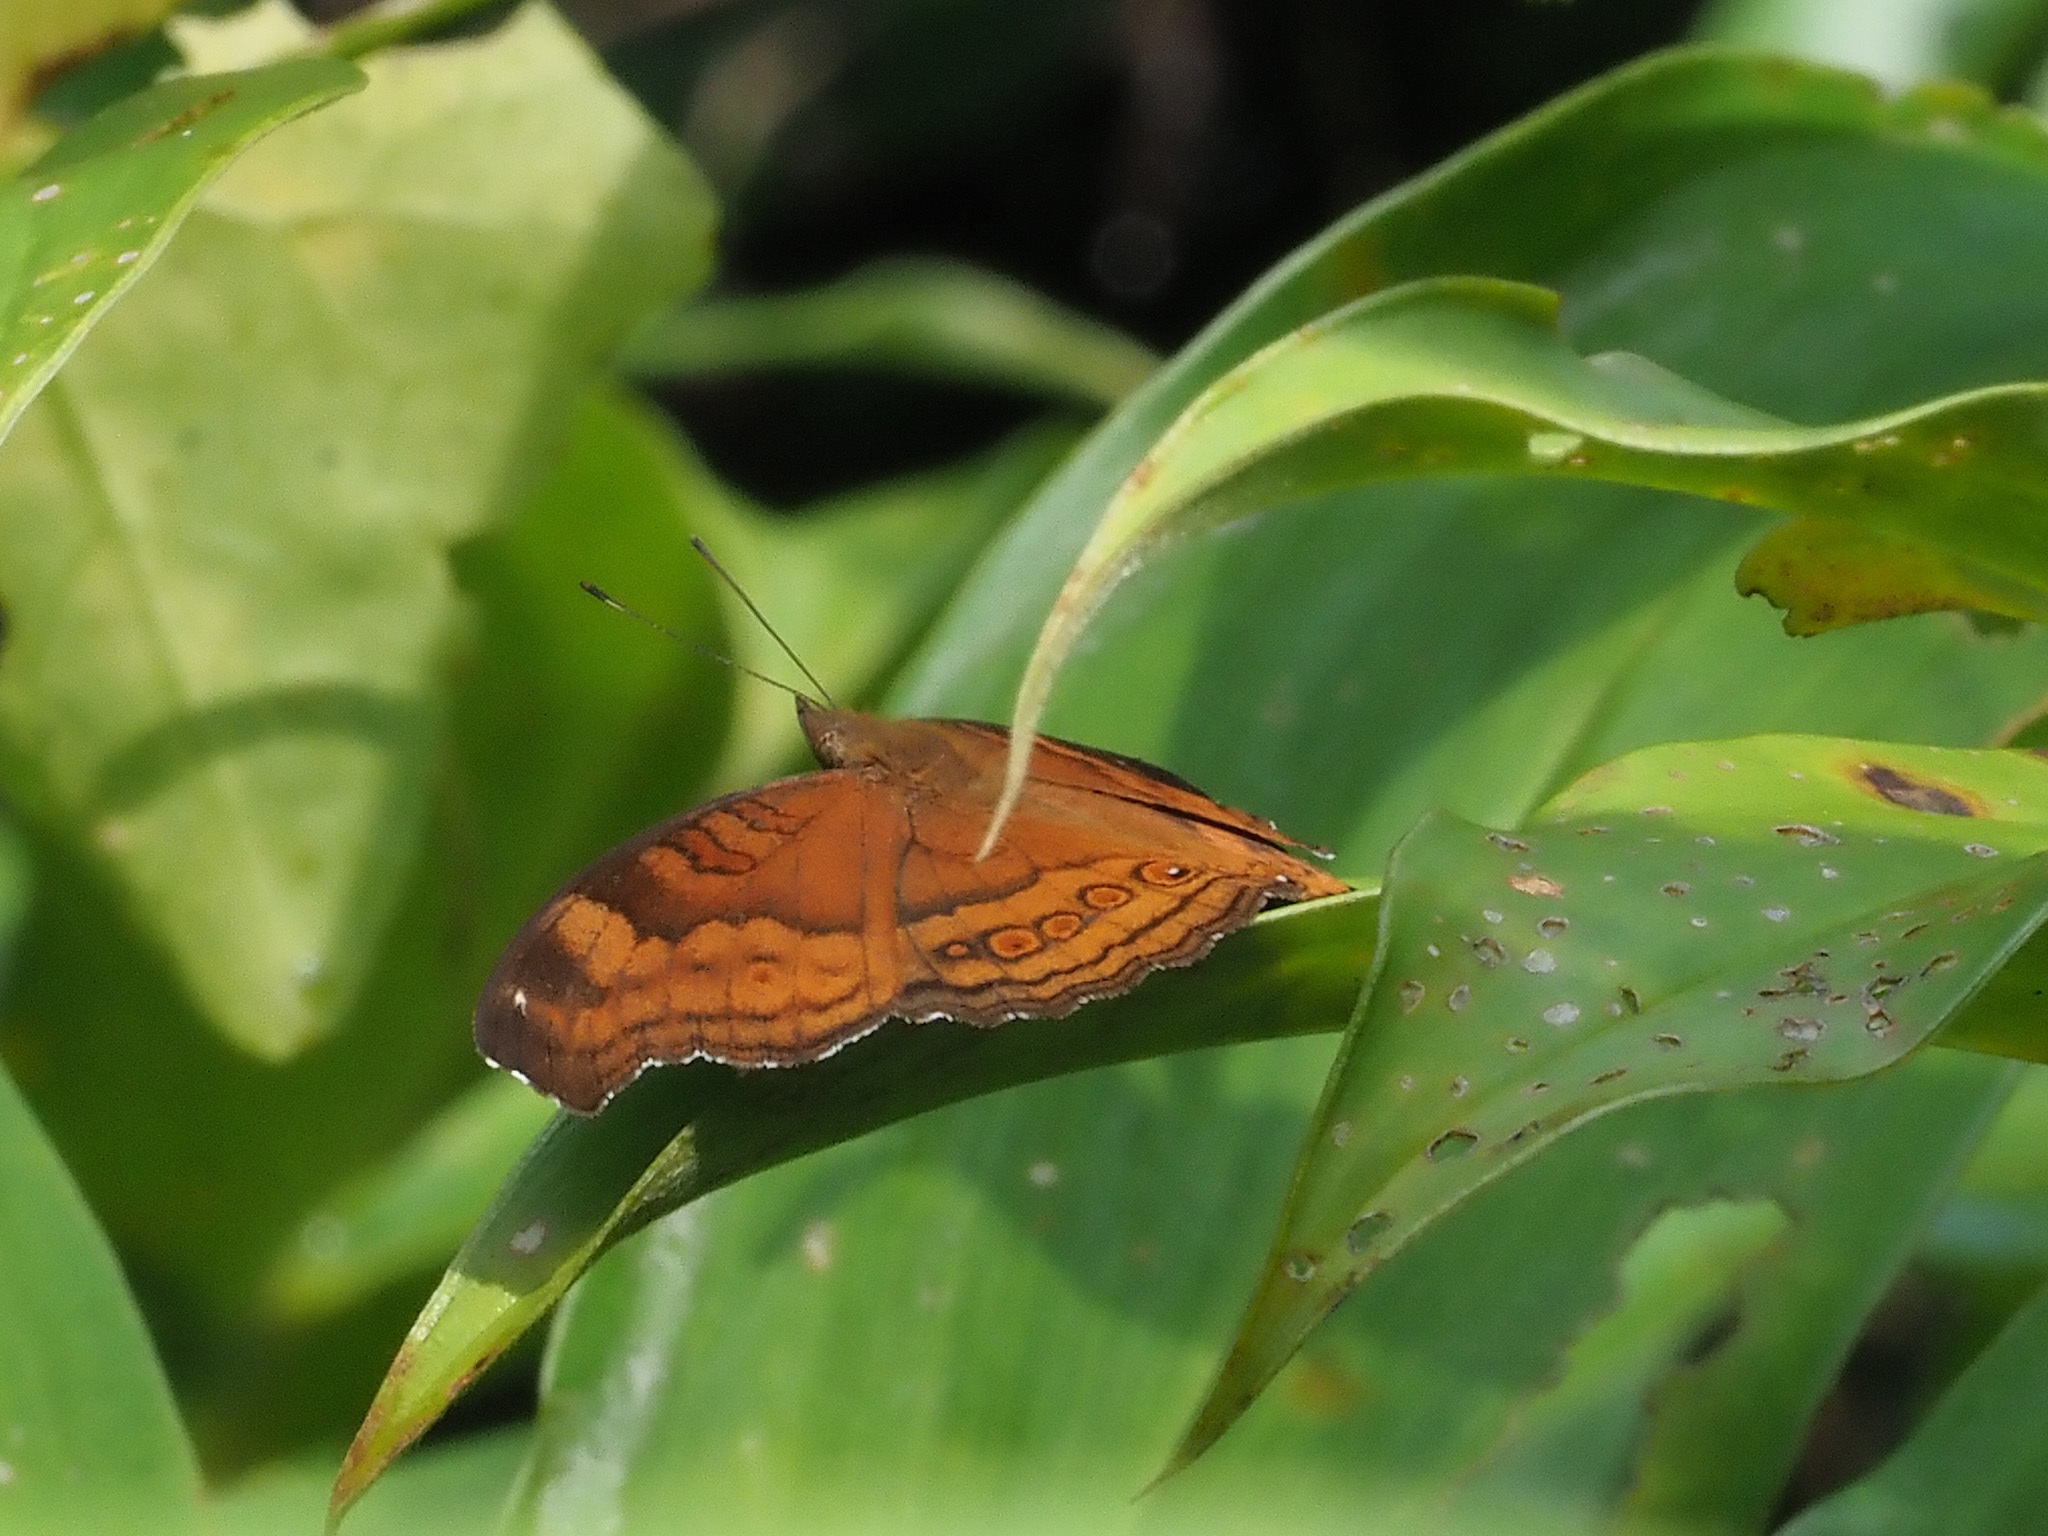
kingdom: Animalia
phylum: Arthropoda
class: Insecta
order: Lepidoptera
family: Nymphalidae
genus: Junonia
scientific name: Junonia hedonia
